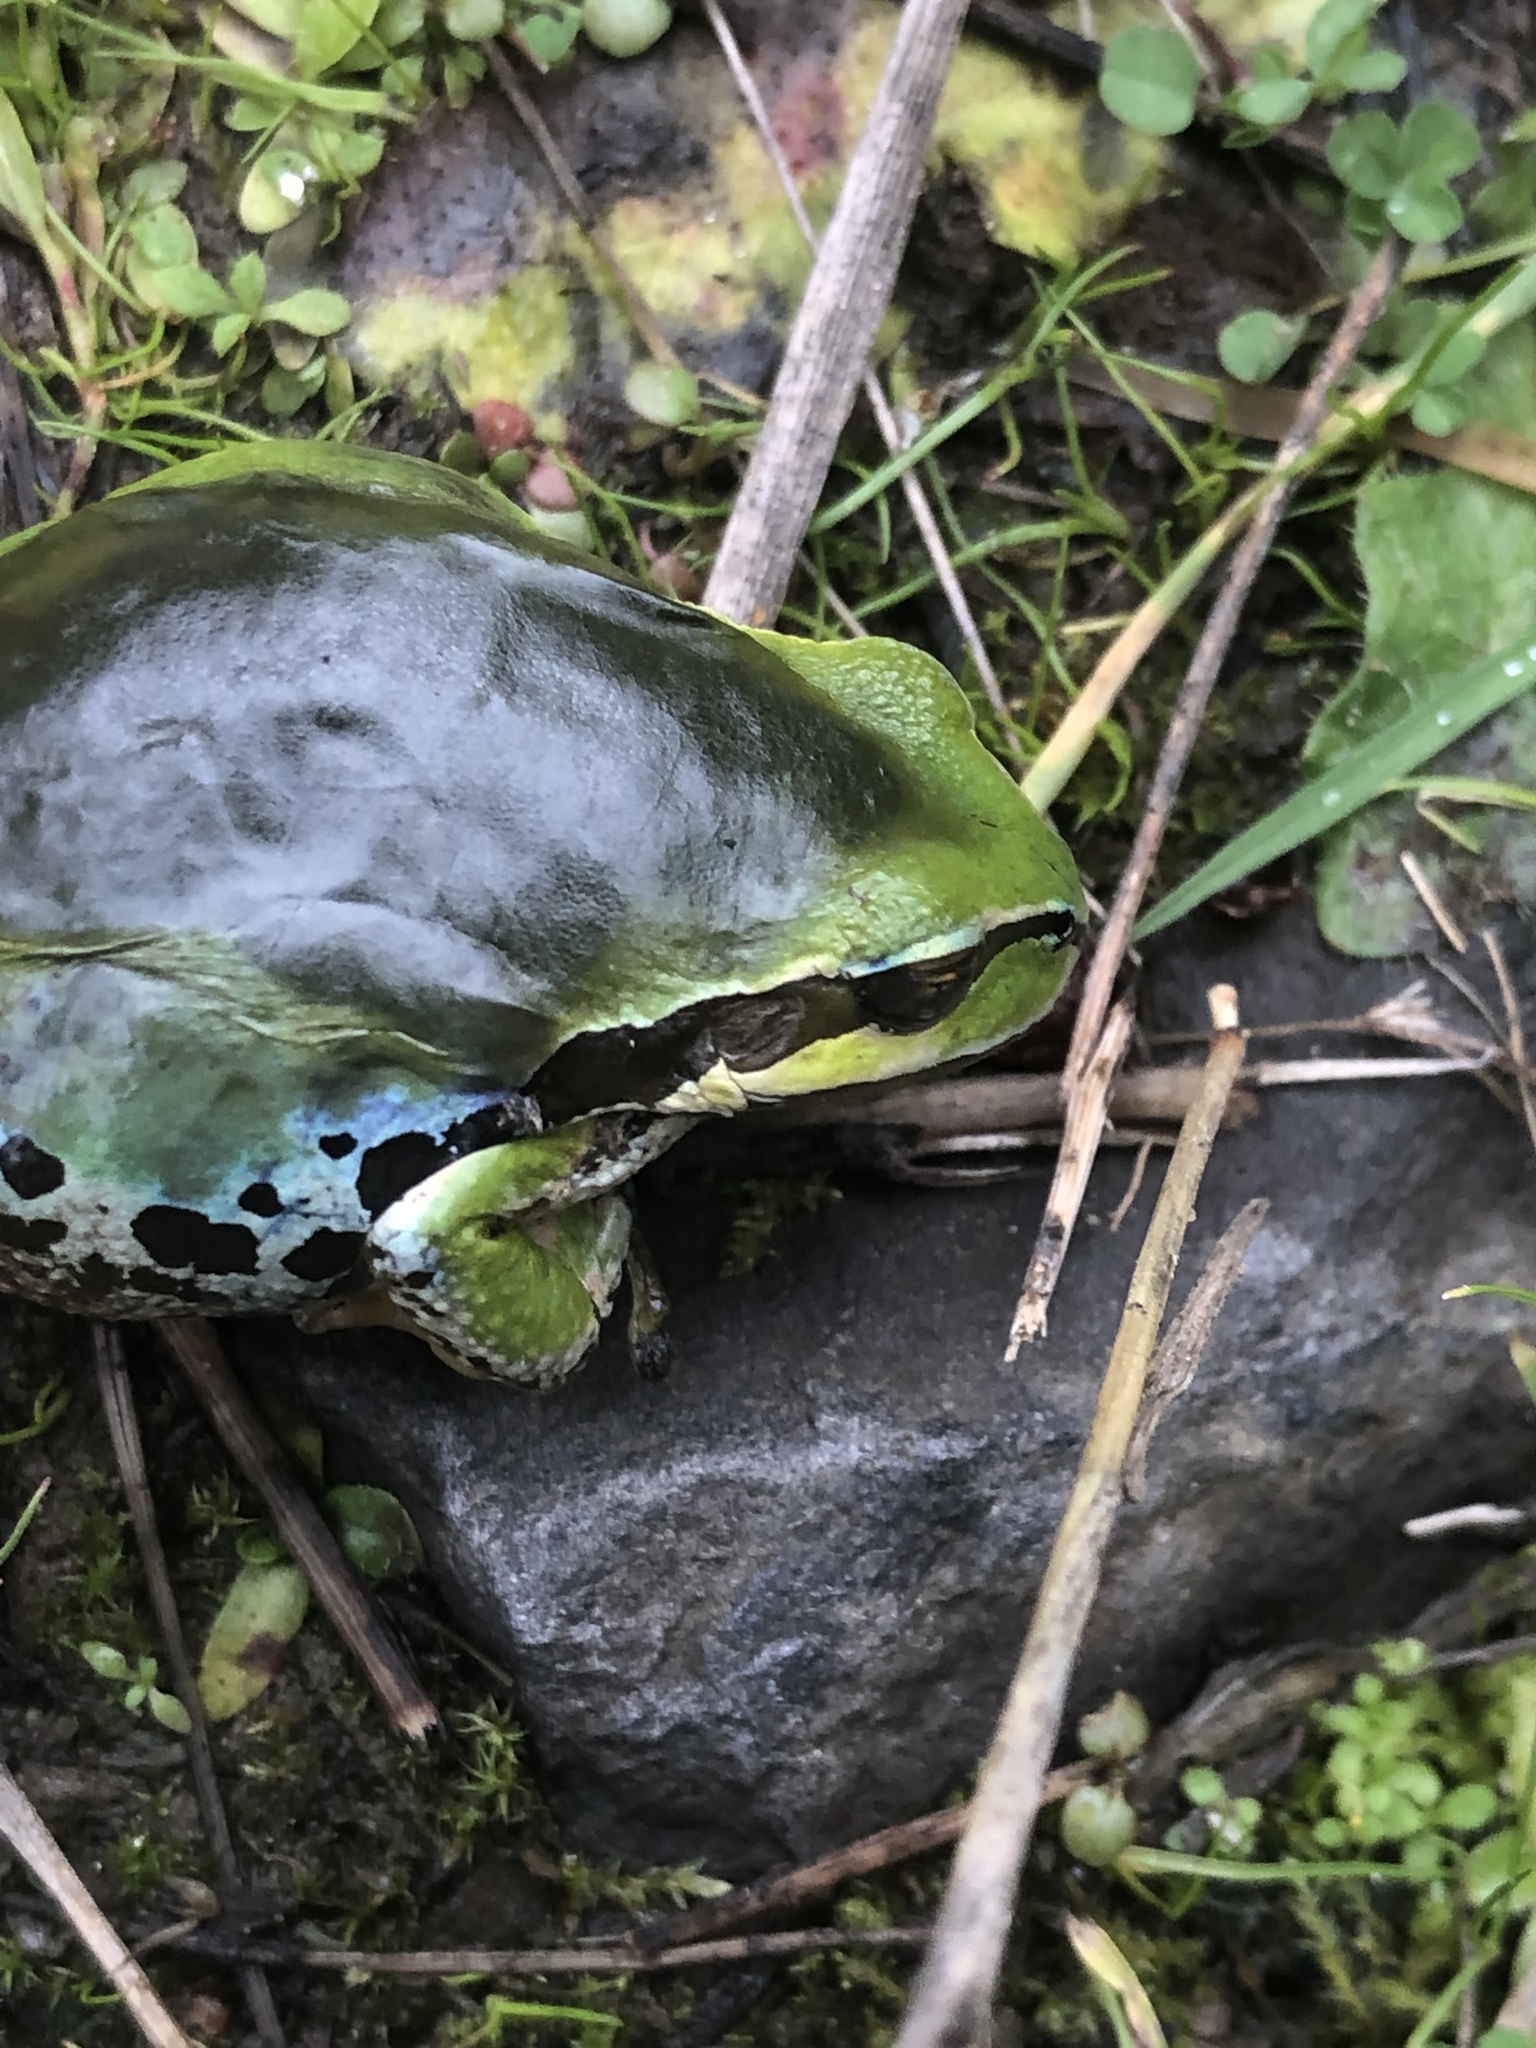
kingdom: Animalia
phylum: Chordata
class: Amphibia
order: Anura
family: Hylidae
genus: Pseudacris
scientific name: Pseudacris regilla
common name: Pacific chorus frog
